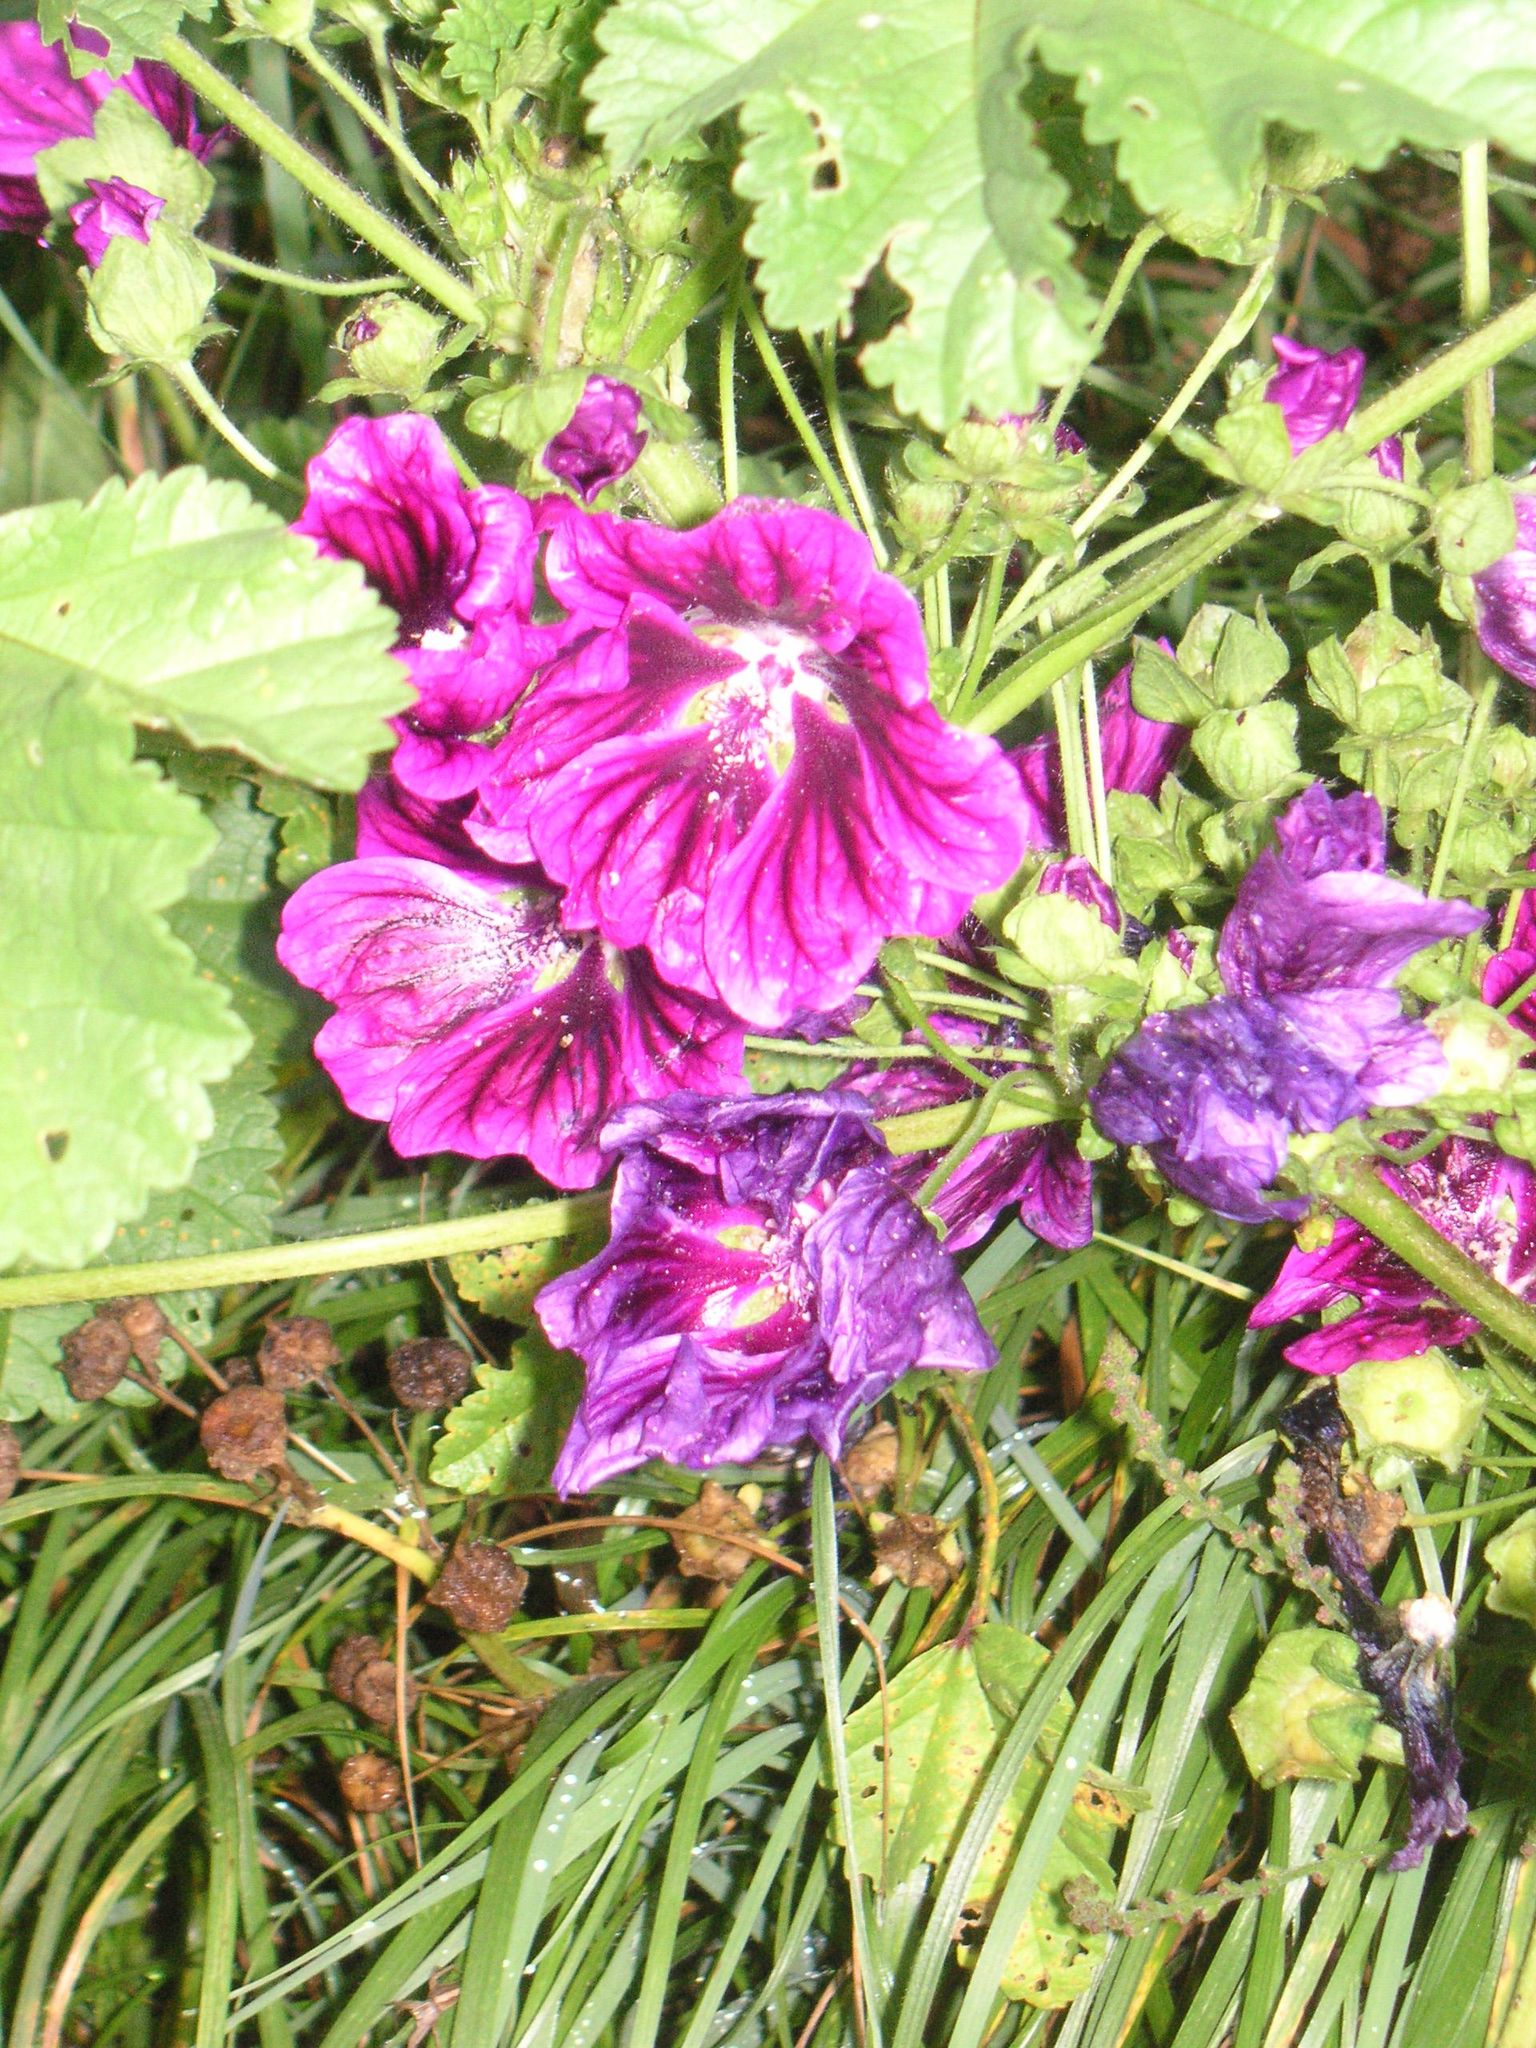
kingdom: Plantae
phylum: Tracheophyta
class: Magnoliopsida
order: Malvales
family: Malvaceae
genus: Malva
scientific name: Malva sylvestris
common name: Common mallow
